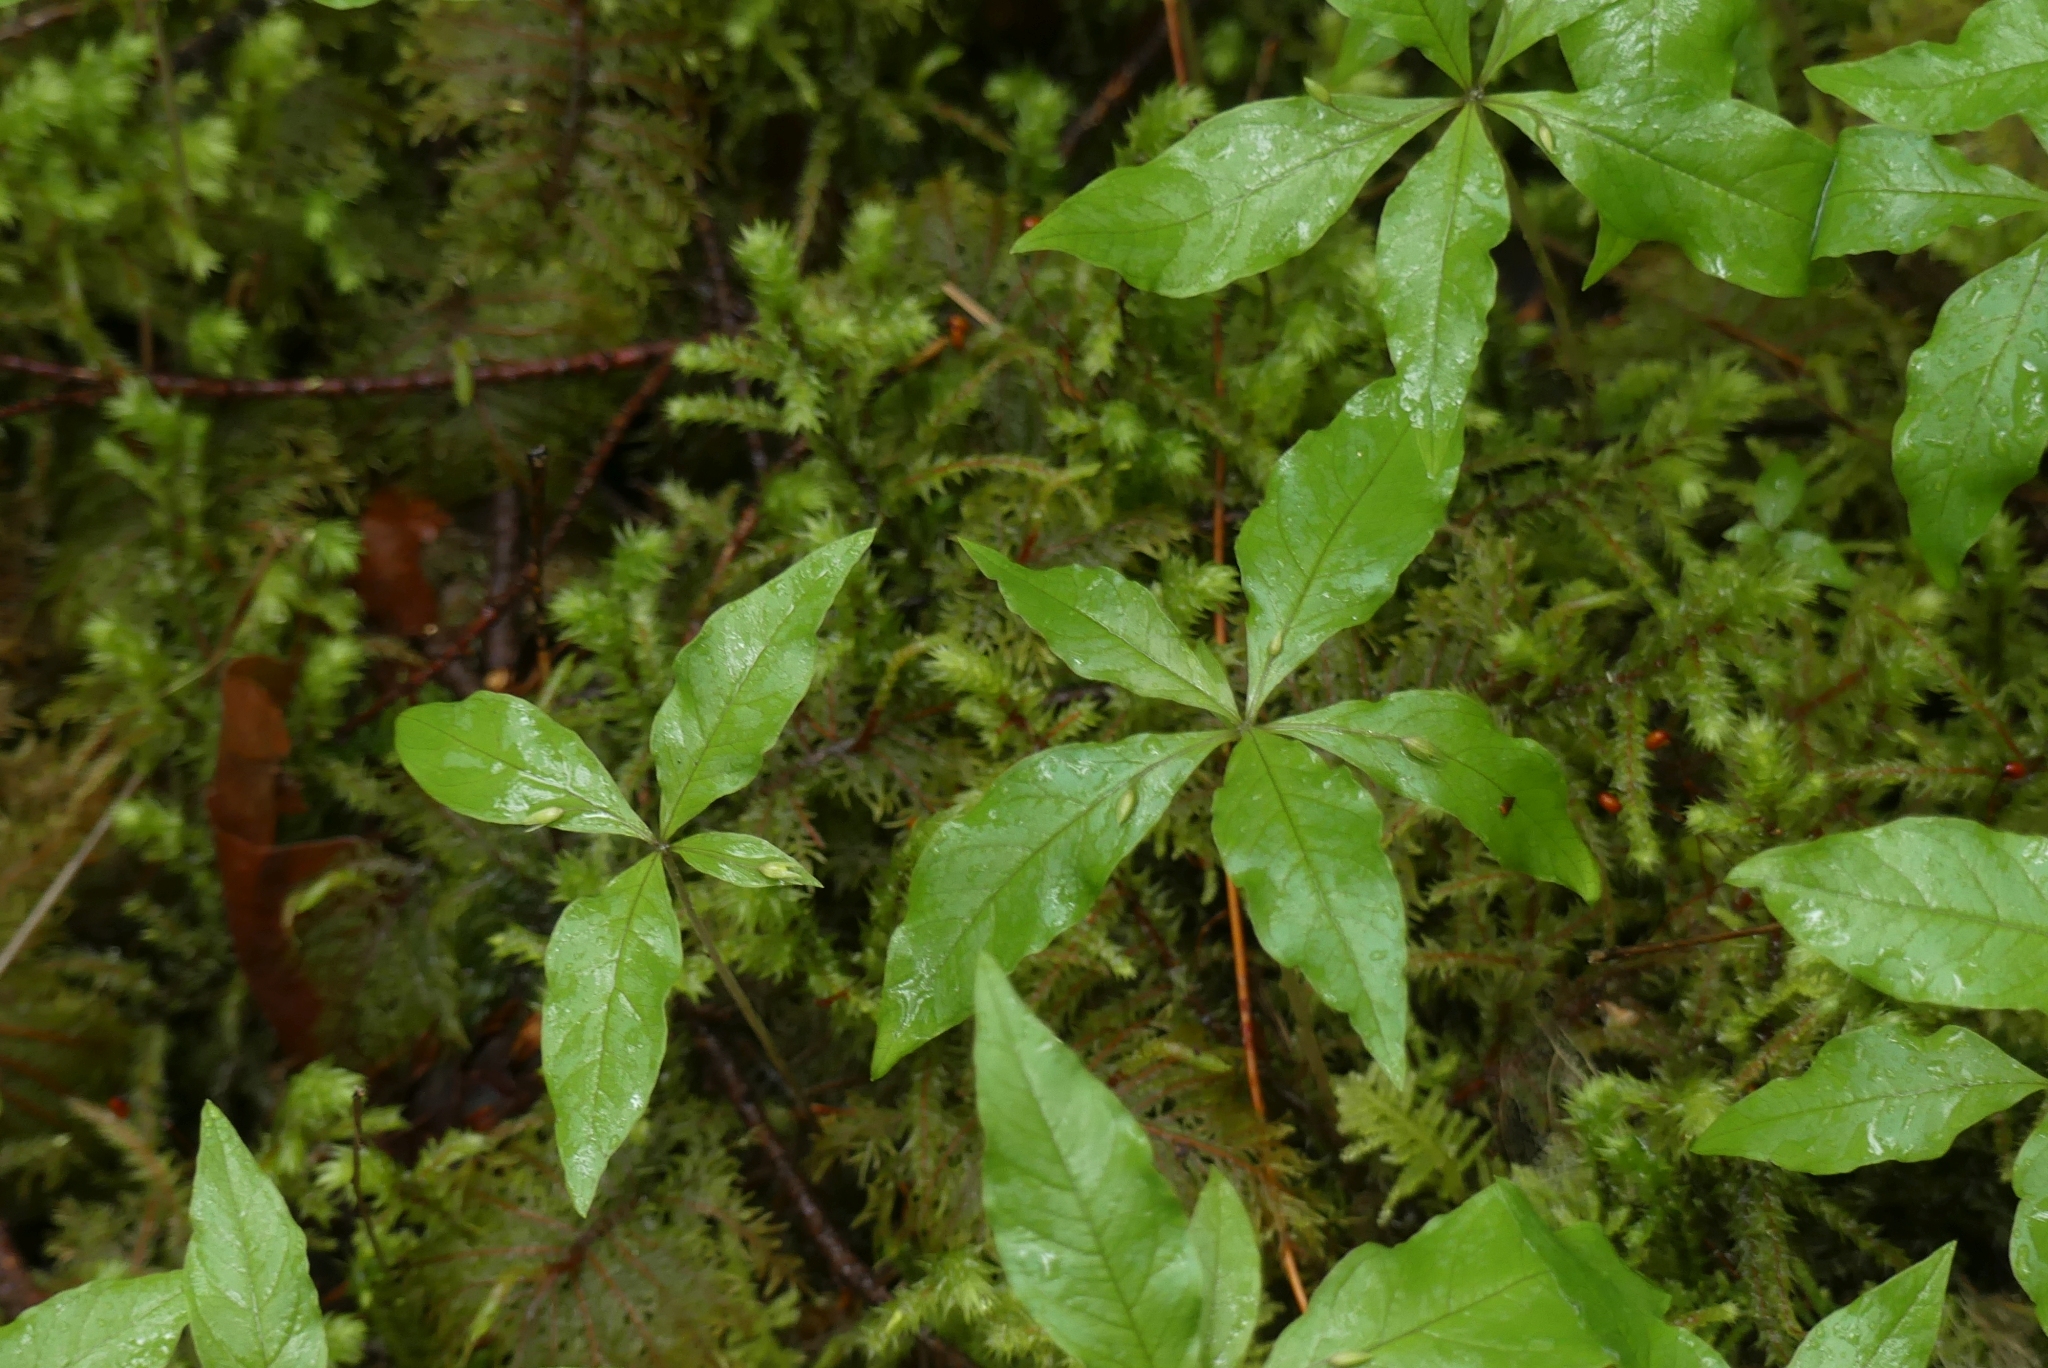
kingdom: Plantae
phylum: Tracheophyta
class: Magnoliopsida
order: Ericales
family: Primulaceae
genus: Lysimachia
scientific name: Lysimachia latifolia
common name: Pacific starflower
